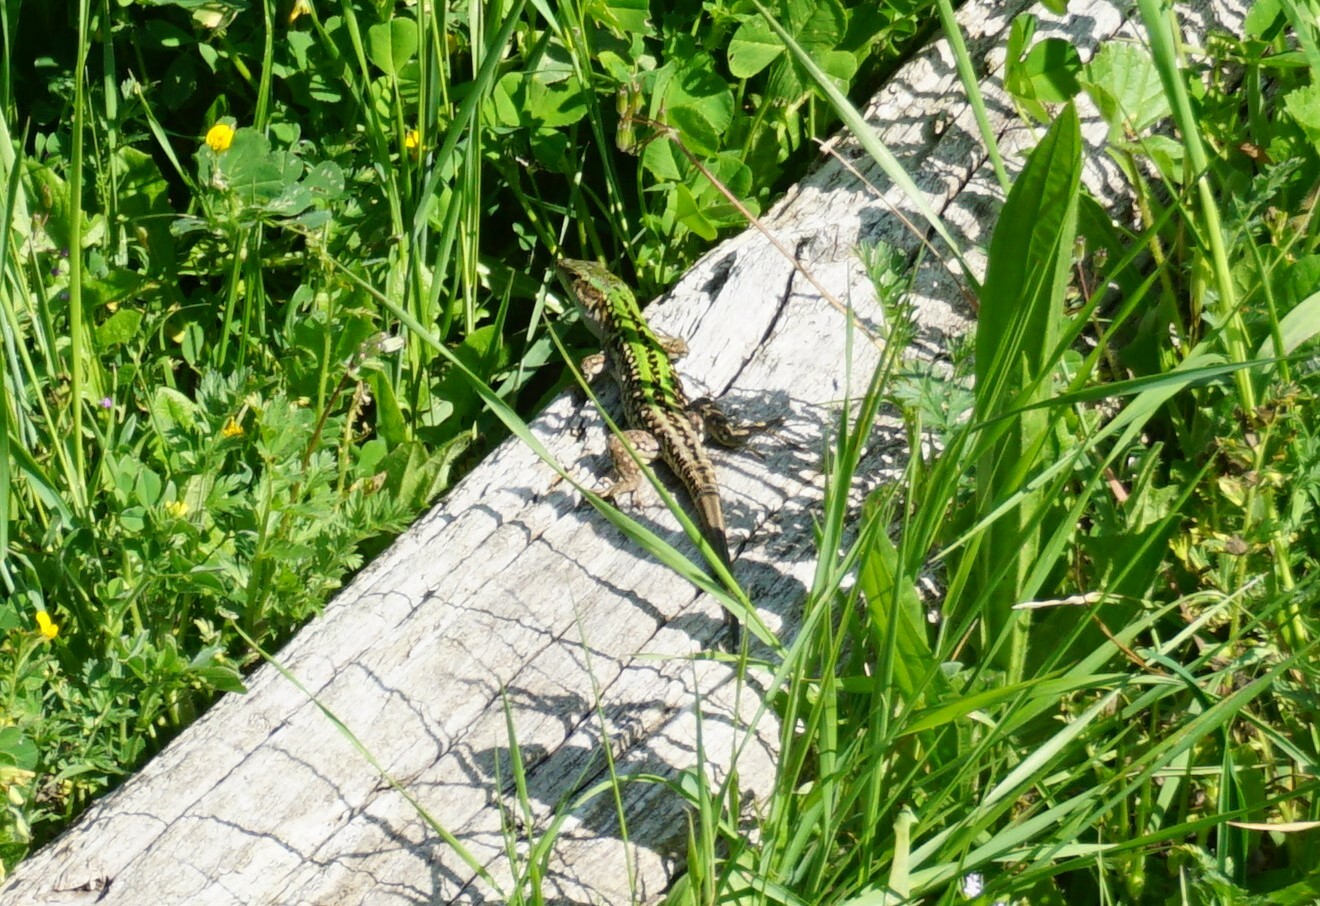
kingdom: Animalia
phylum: Chordata
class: Squamata
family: Lacertidae
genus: Podarcis
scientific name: Podarcis siculus
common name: Italian wall lizard
